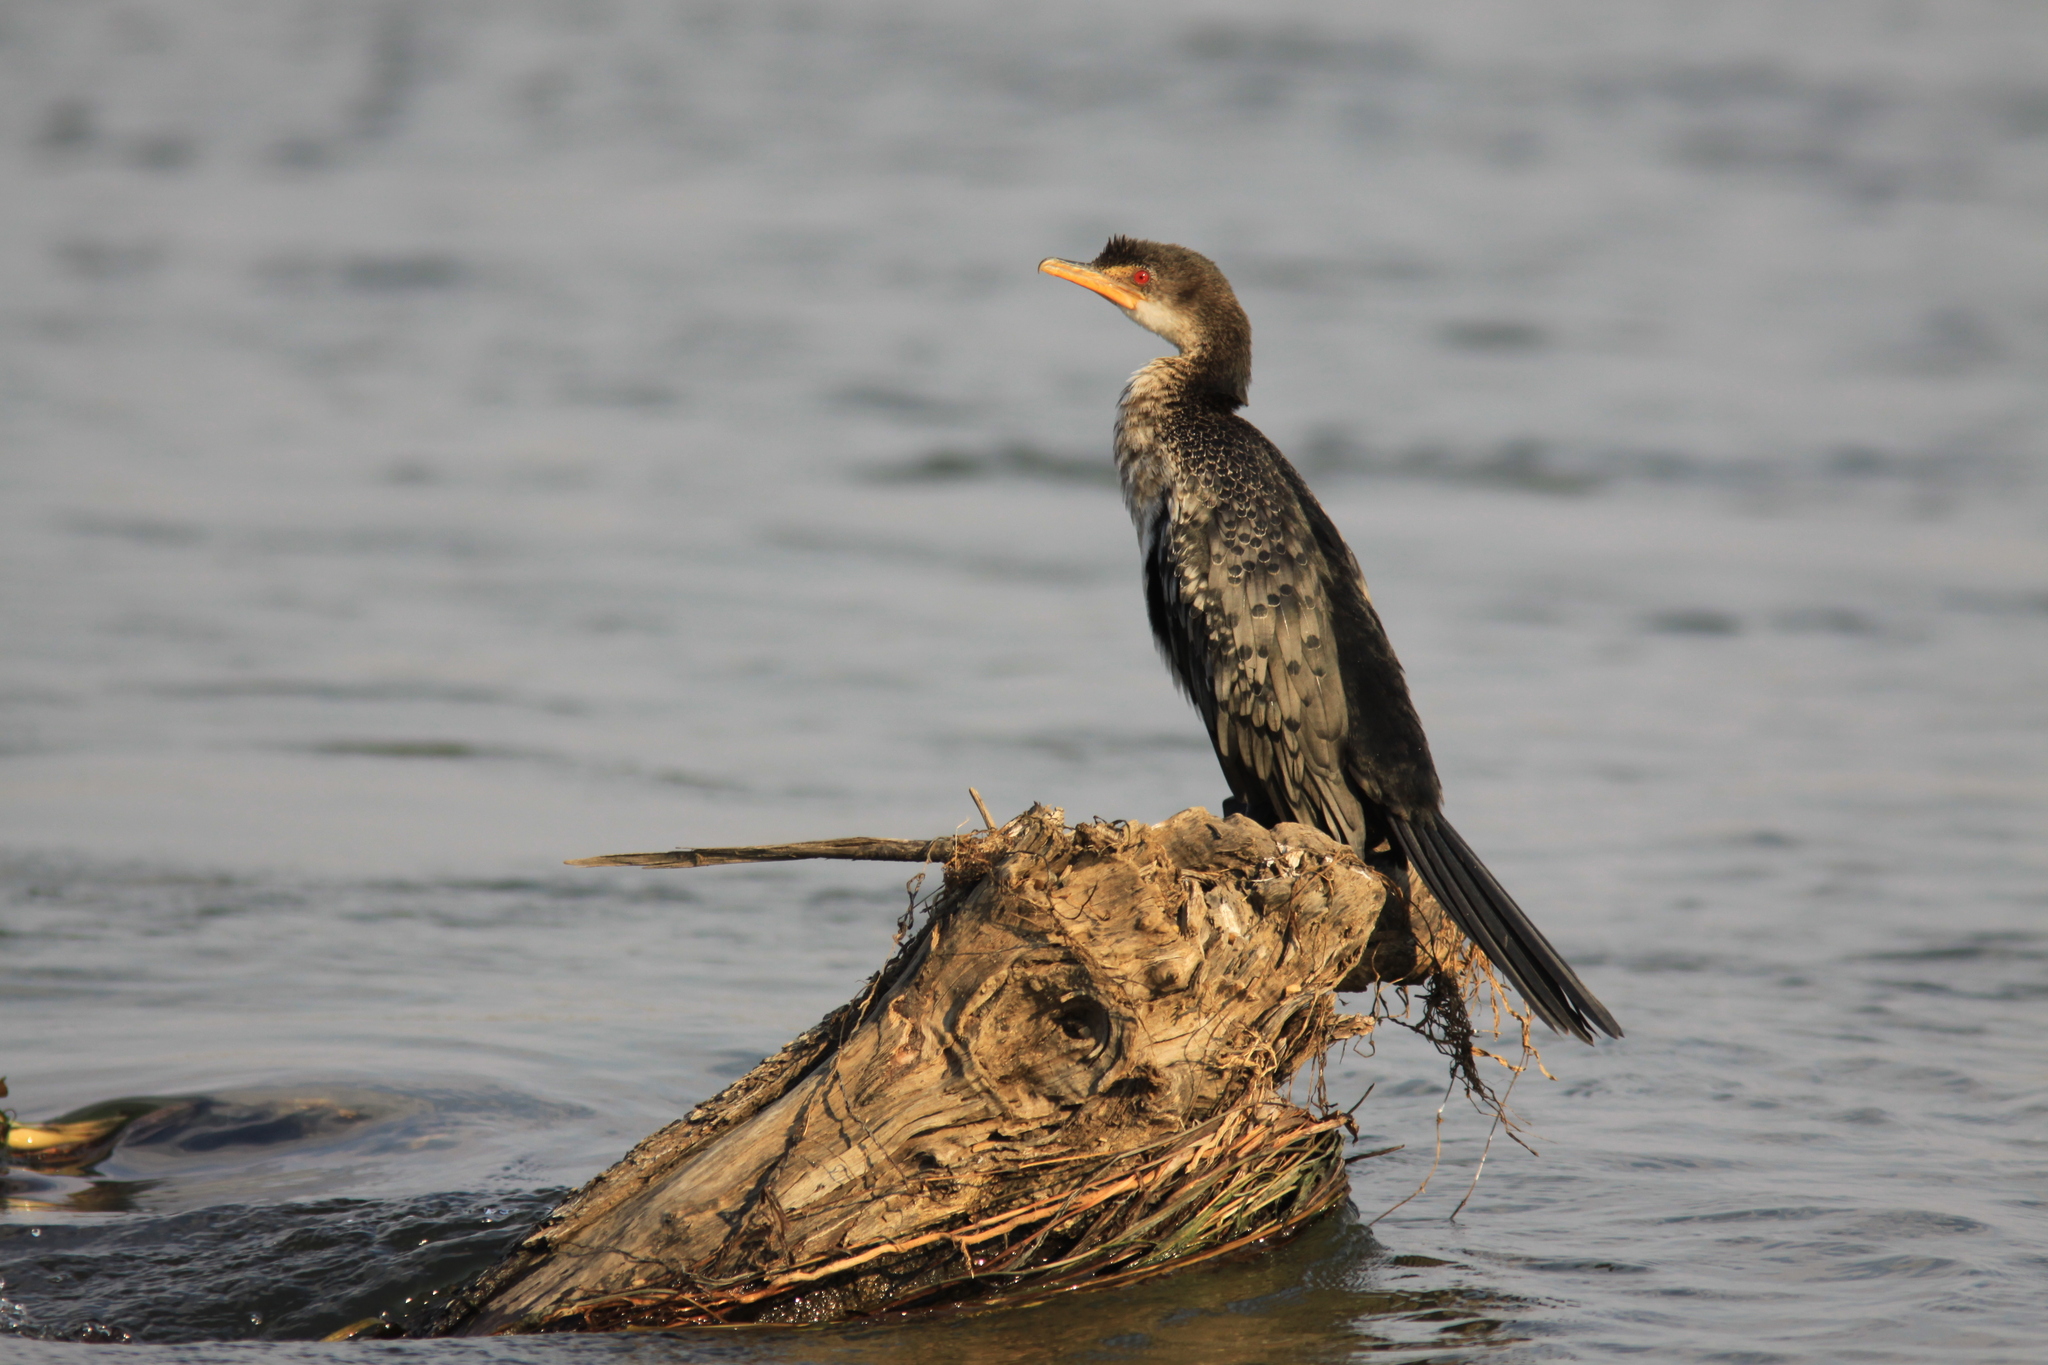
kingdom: Animalia
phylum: Chordata
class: Aves
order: Suliformes
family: Phalacrocoracidae
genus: Microcarbo
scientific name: Microcarbo africanus
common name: Long-tailed cormorant
